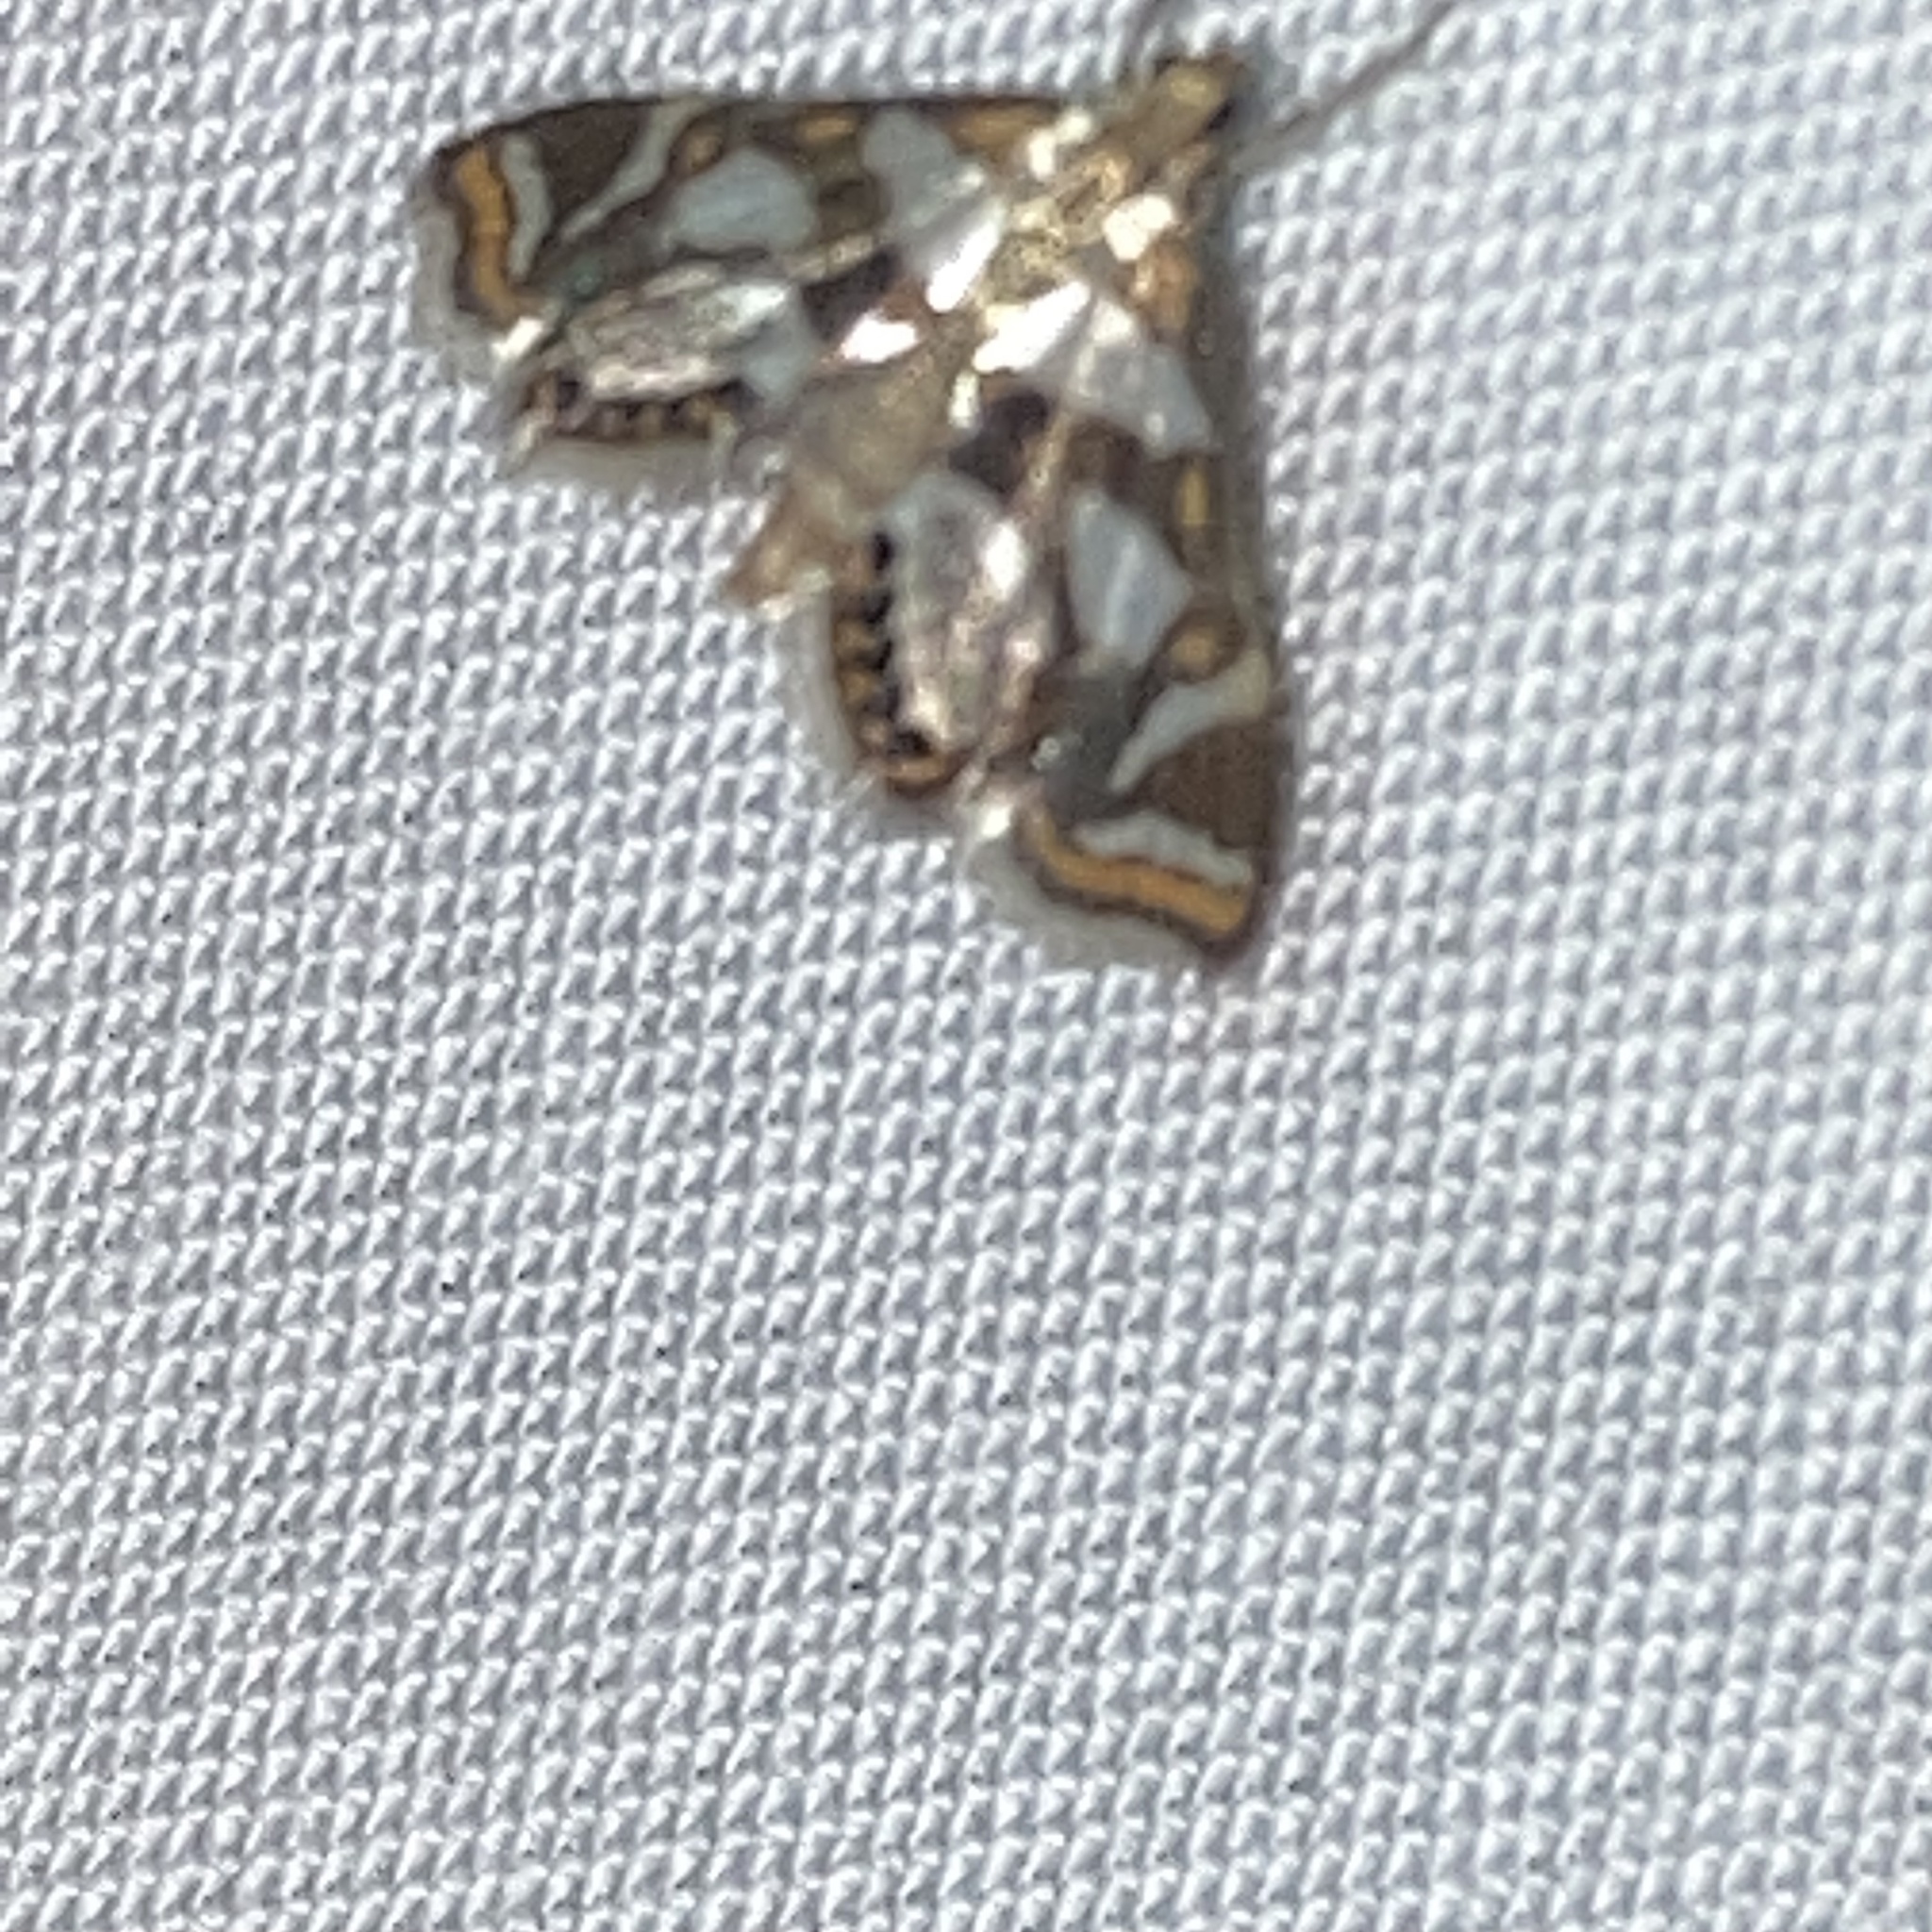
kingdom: Animalia
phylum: Arthropoda
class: Insecta
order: Lepidoptera
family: Crambidae
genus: Chrysendeton
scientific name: Chrysendeton medicinalis
